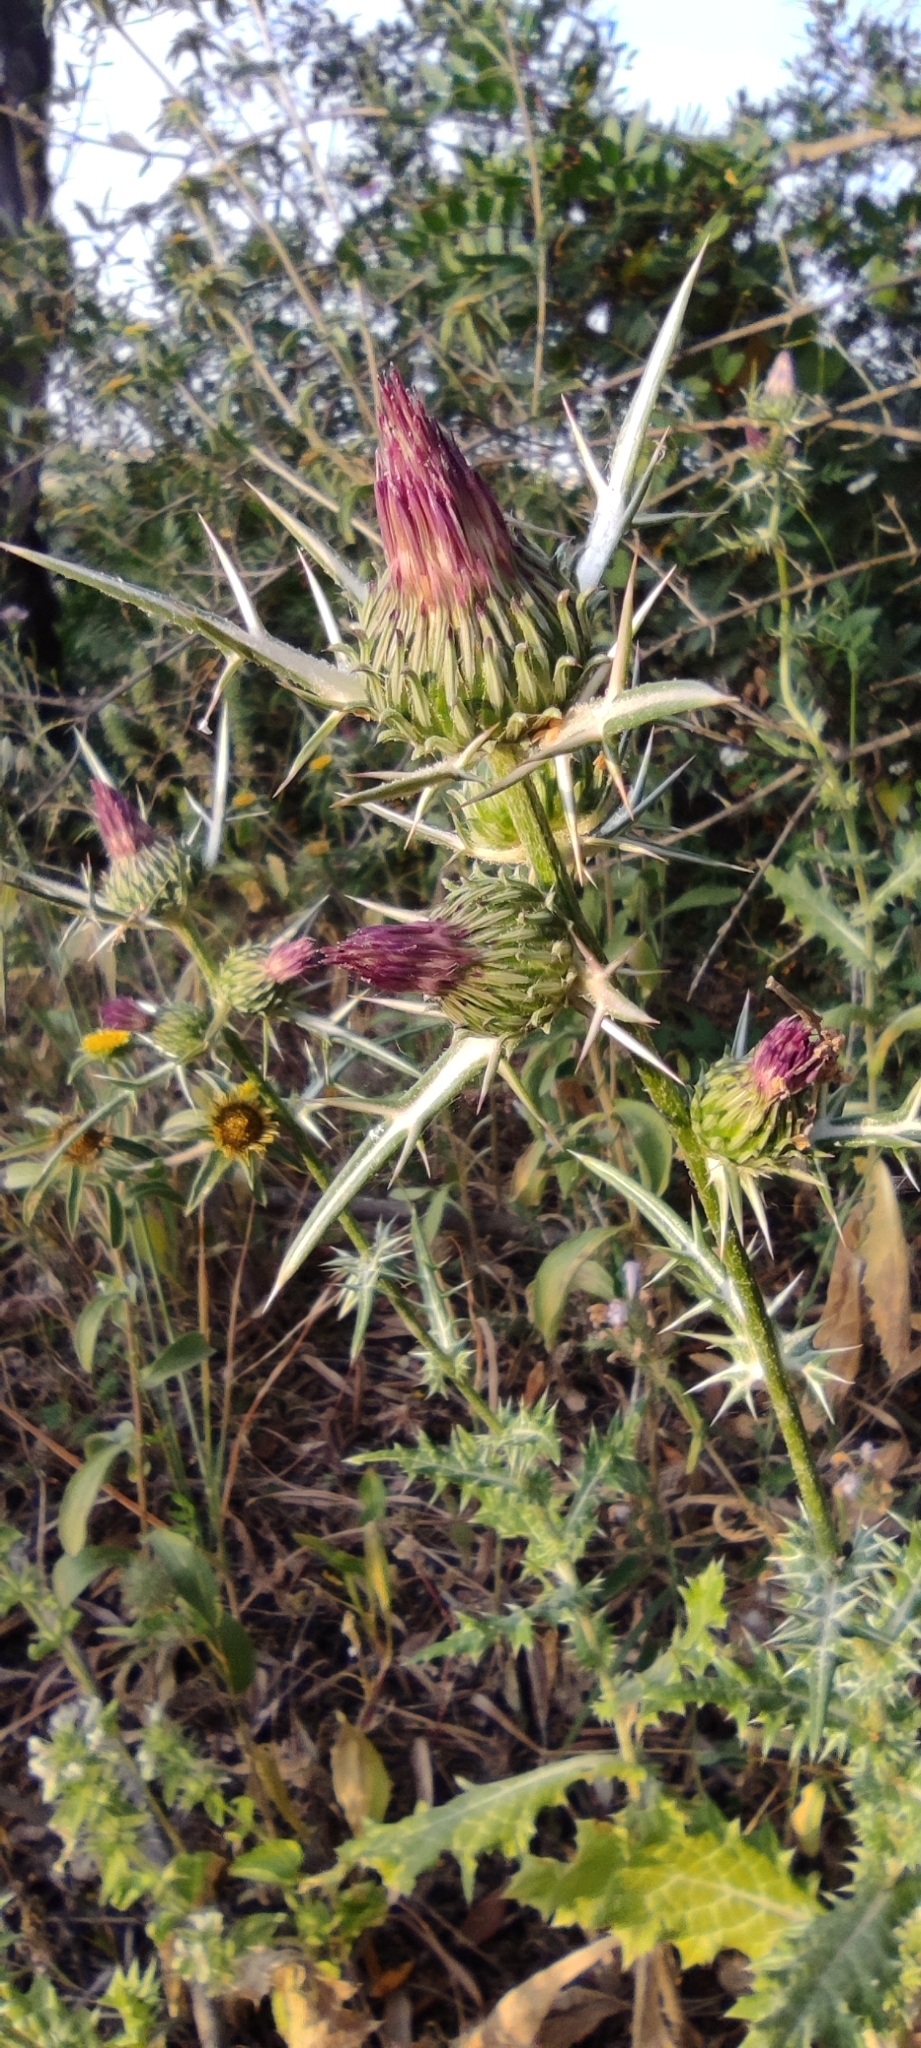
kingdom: Plantae
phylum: Tracheophyta
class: Magnoliopsida
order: Asterales
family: Asteraceae
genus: Notobasis
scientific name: Notobasis syriaca
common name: Syrian thistle
